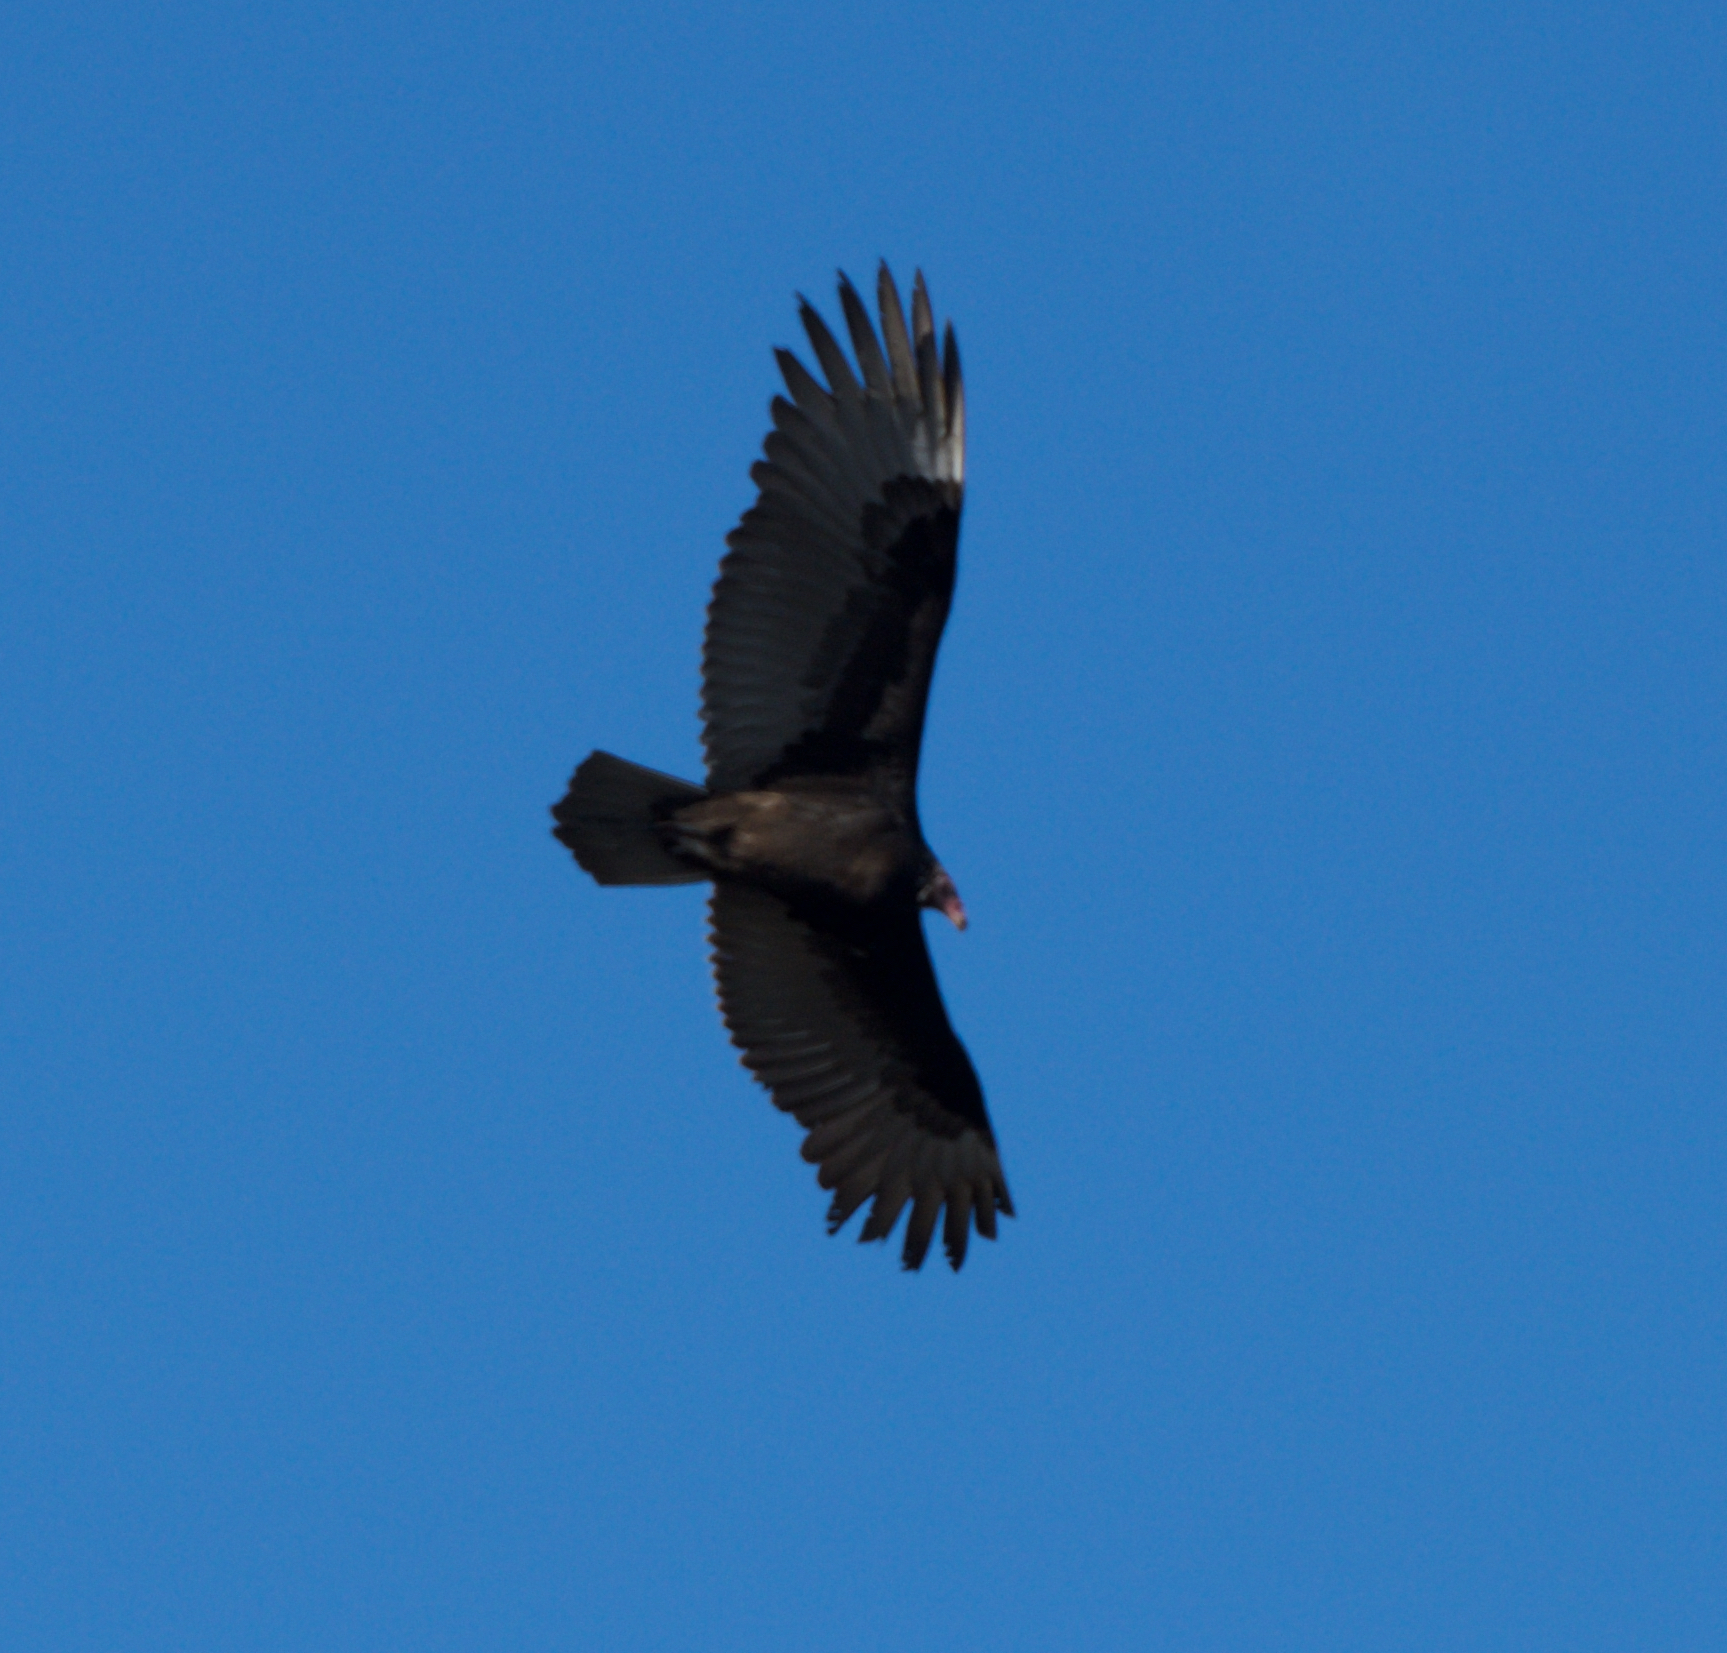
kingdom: Animalia
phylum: Chordata
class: Aves
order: Accipitriformes
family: Cathartidae
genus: Cathartes
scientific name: Cathartes aura
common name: Turkey vulture
